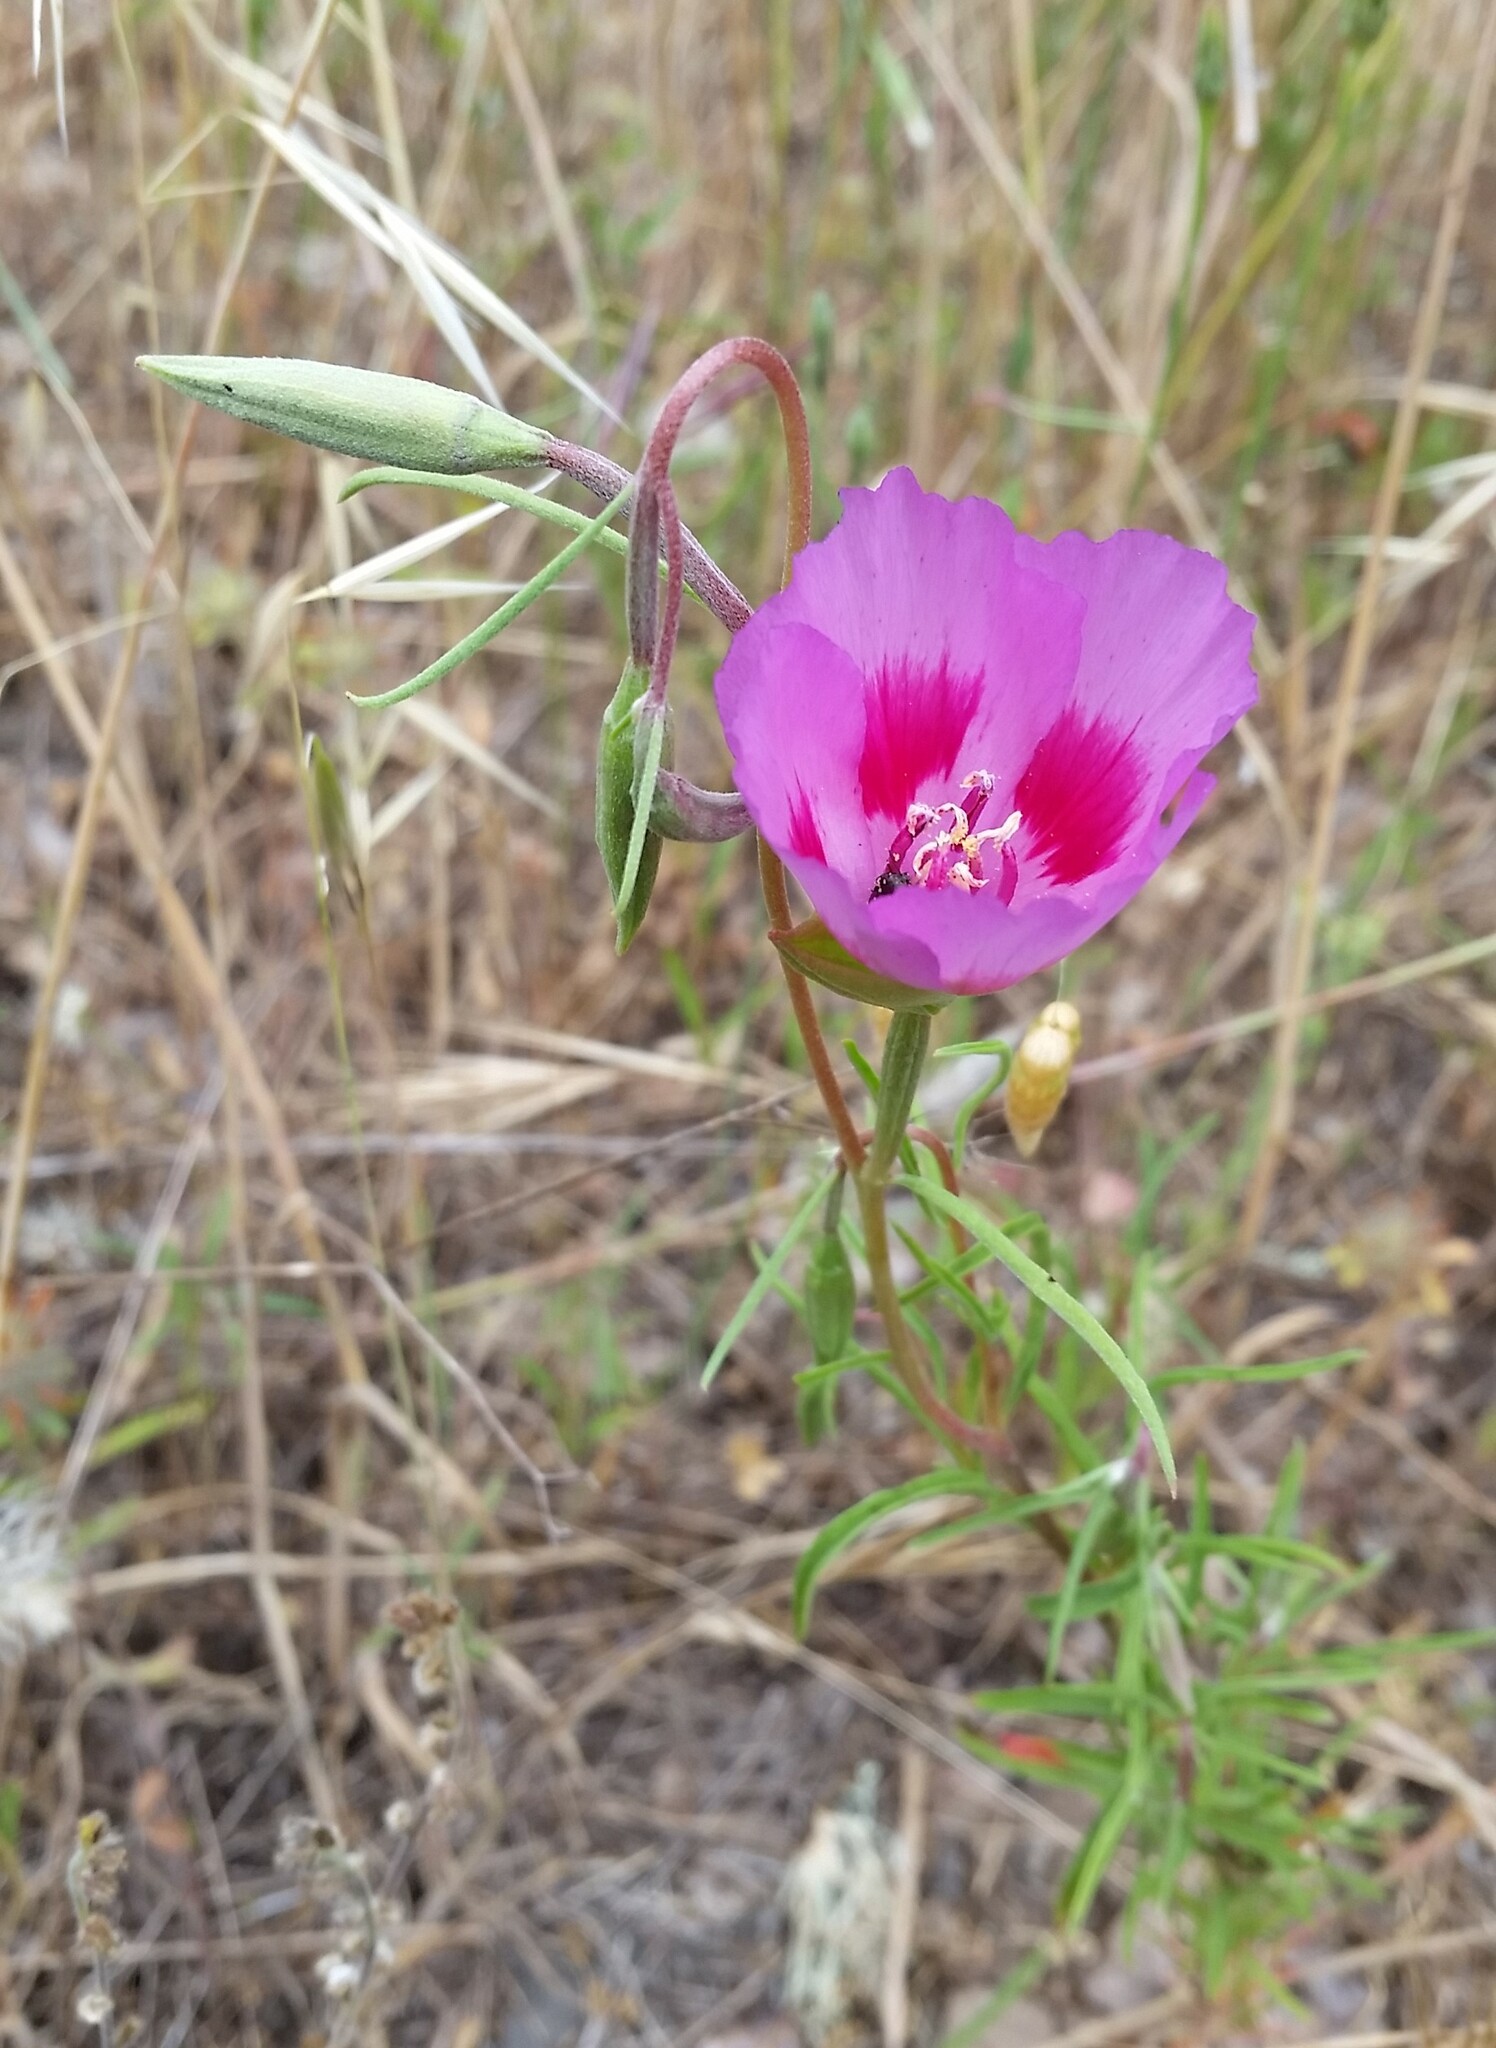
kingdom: Plantae
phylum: Tracheophyta
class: Magnoliopsida
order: Myrtales
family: Onagraceae
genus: Clarkia
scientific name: Clarkia gracilis
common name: Graceful clarkia
